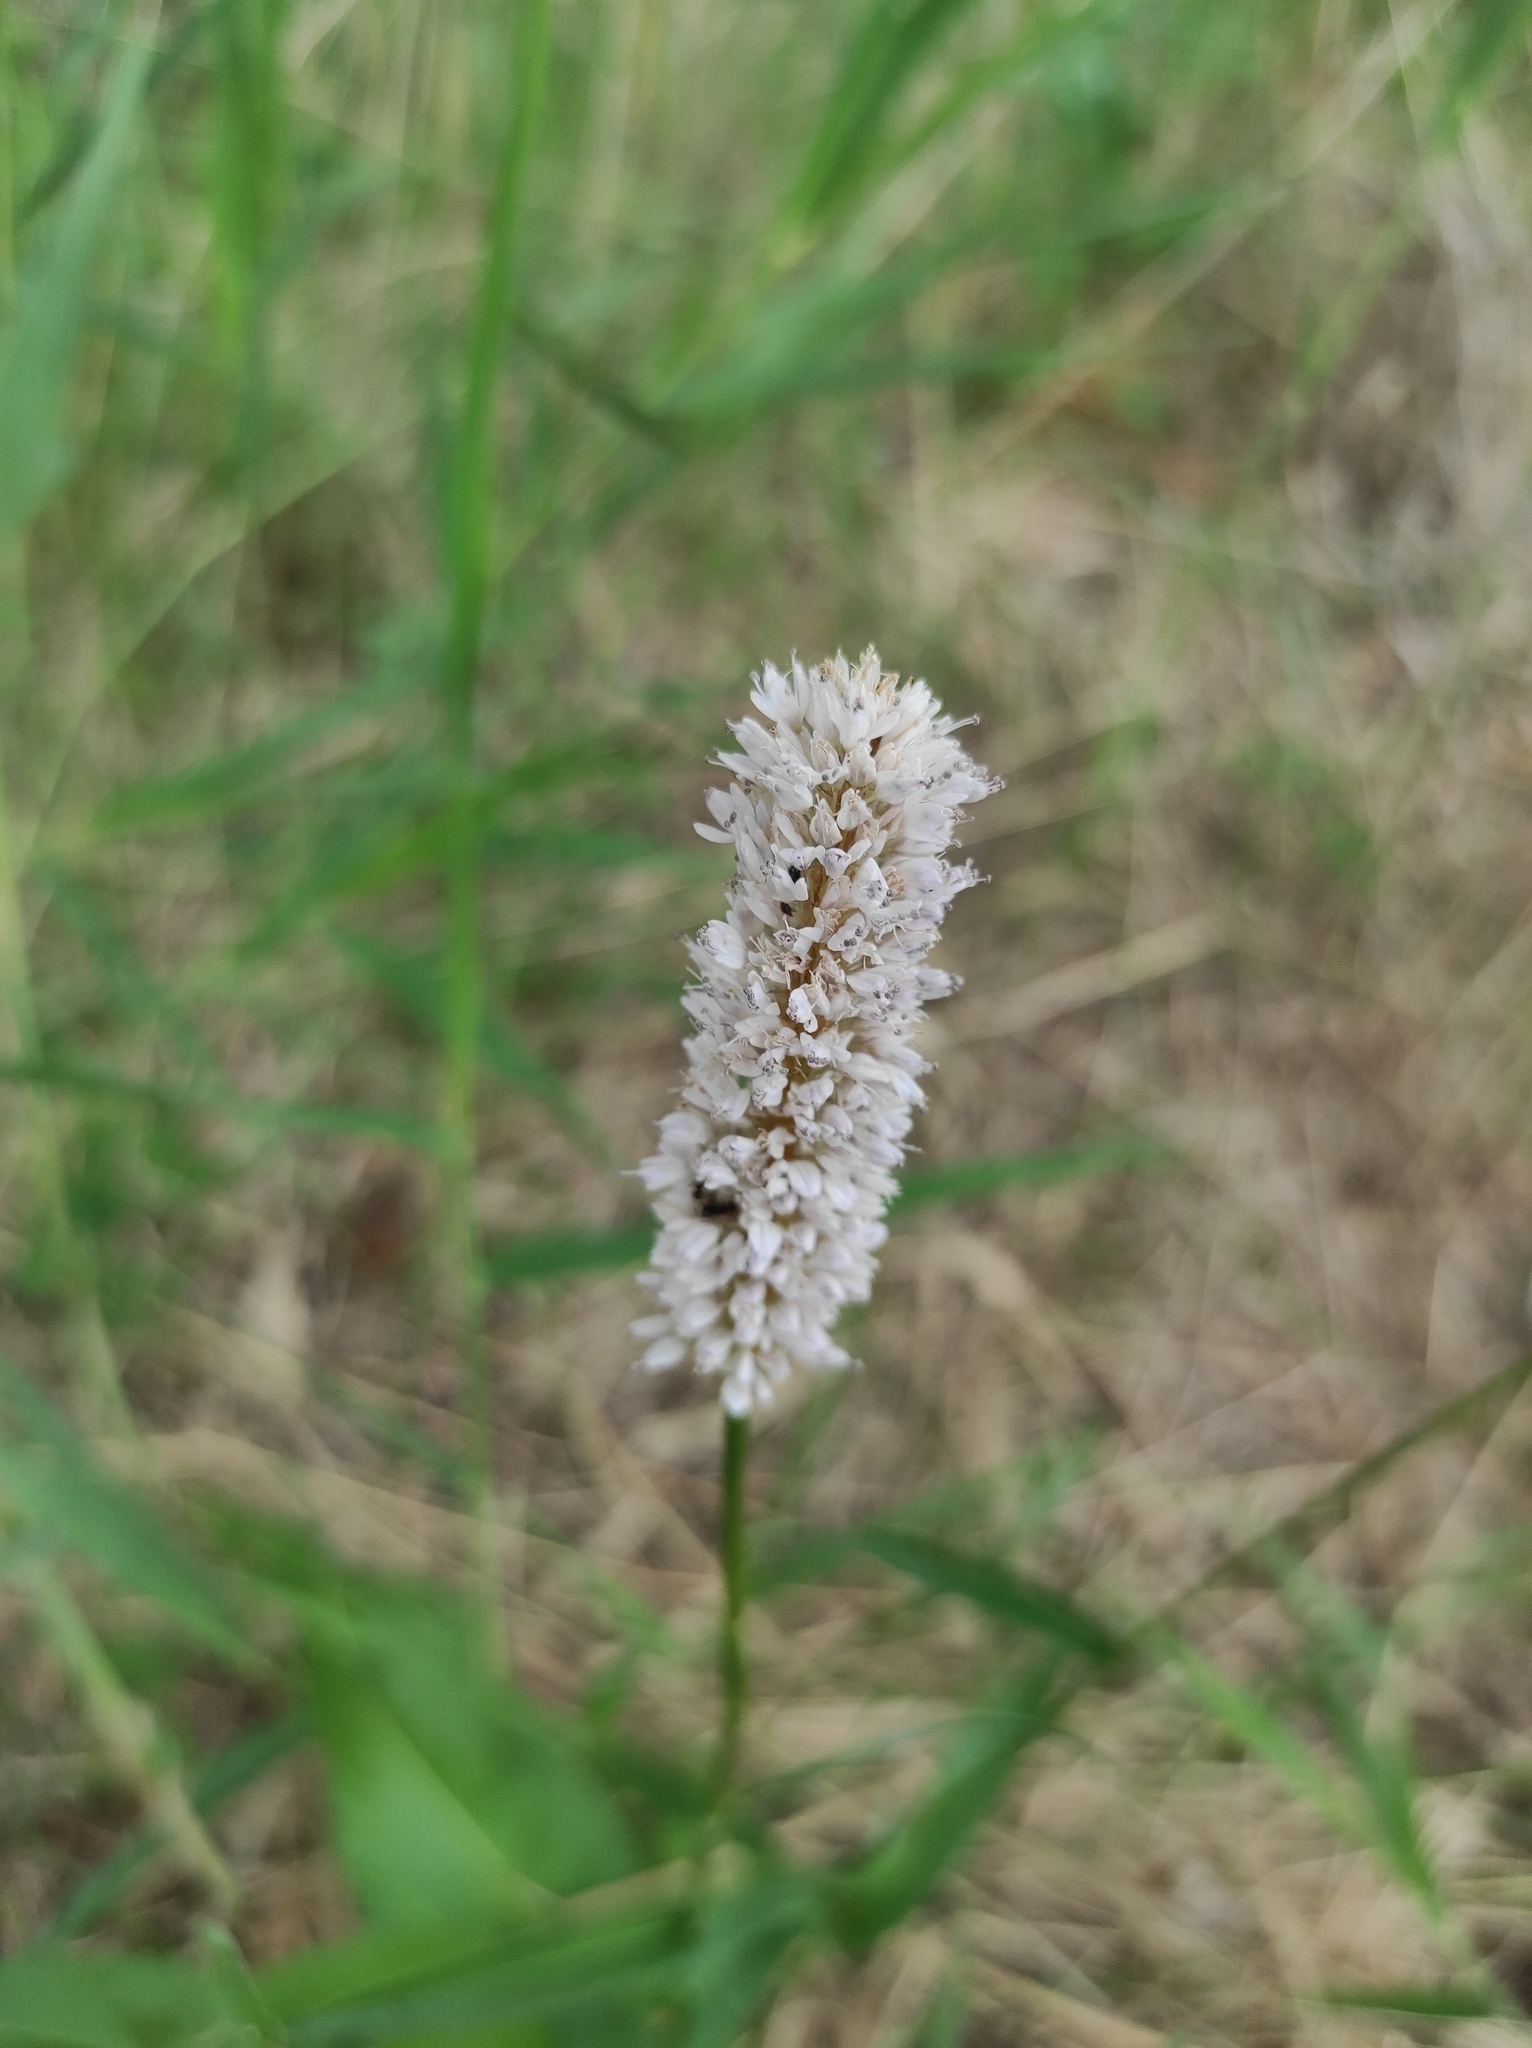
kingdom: Plantae
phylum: Tracheophyta
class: Magnoliopsida
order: Caryophyllales
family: Polygonaceae
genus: Bistorta
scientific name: Bistorta officinalis
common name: Common bistort
